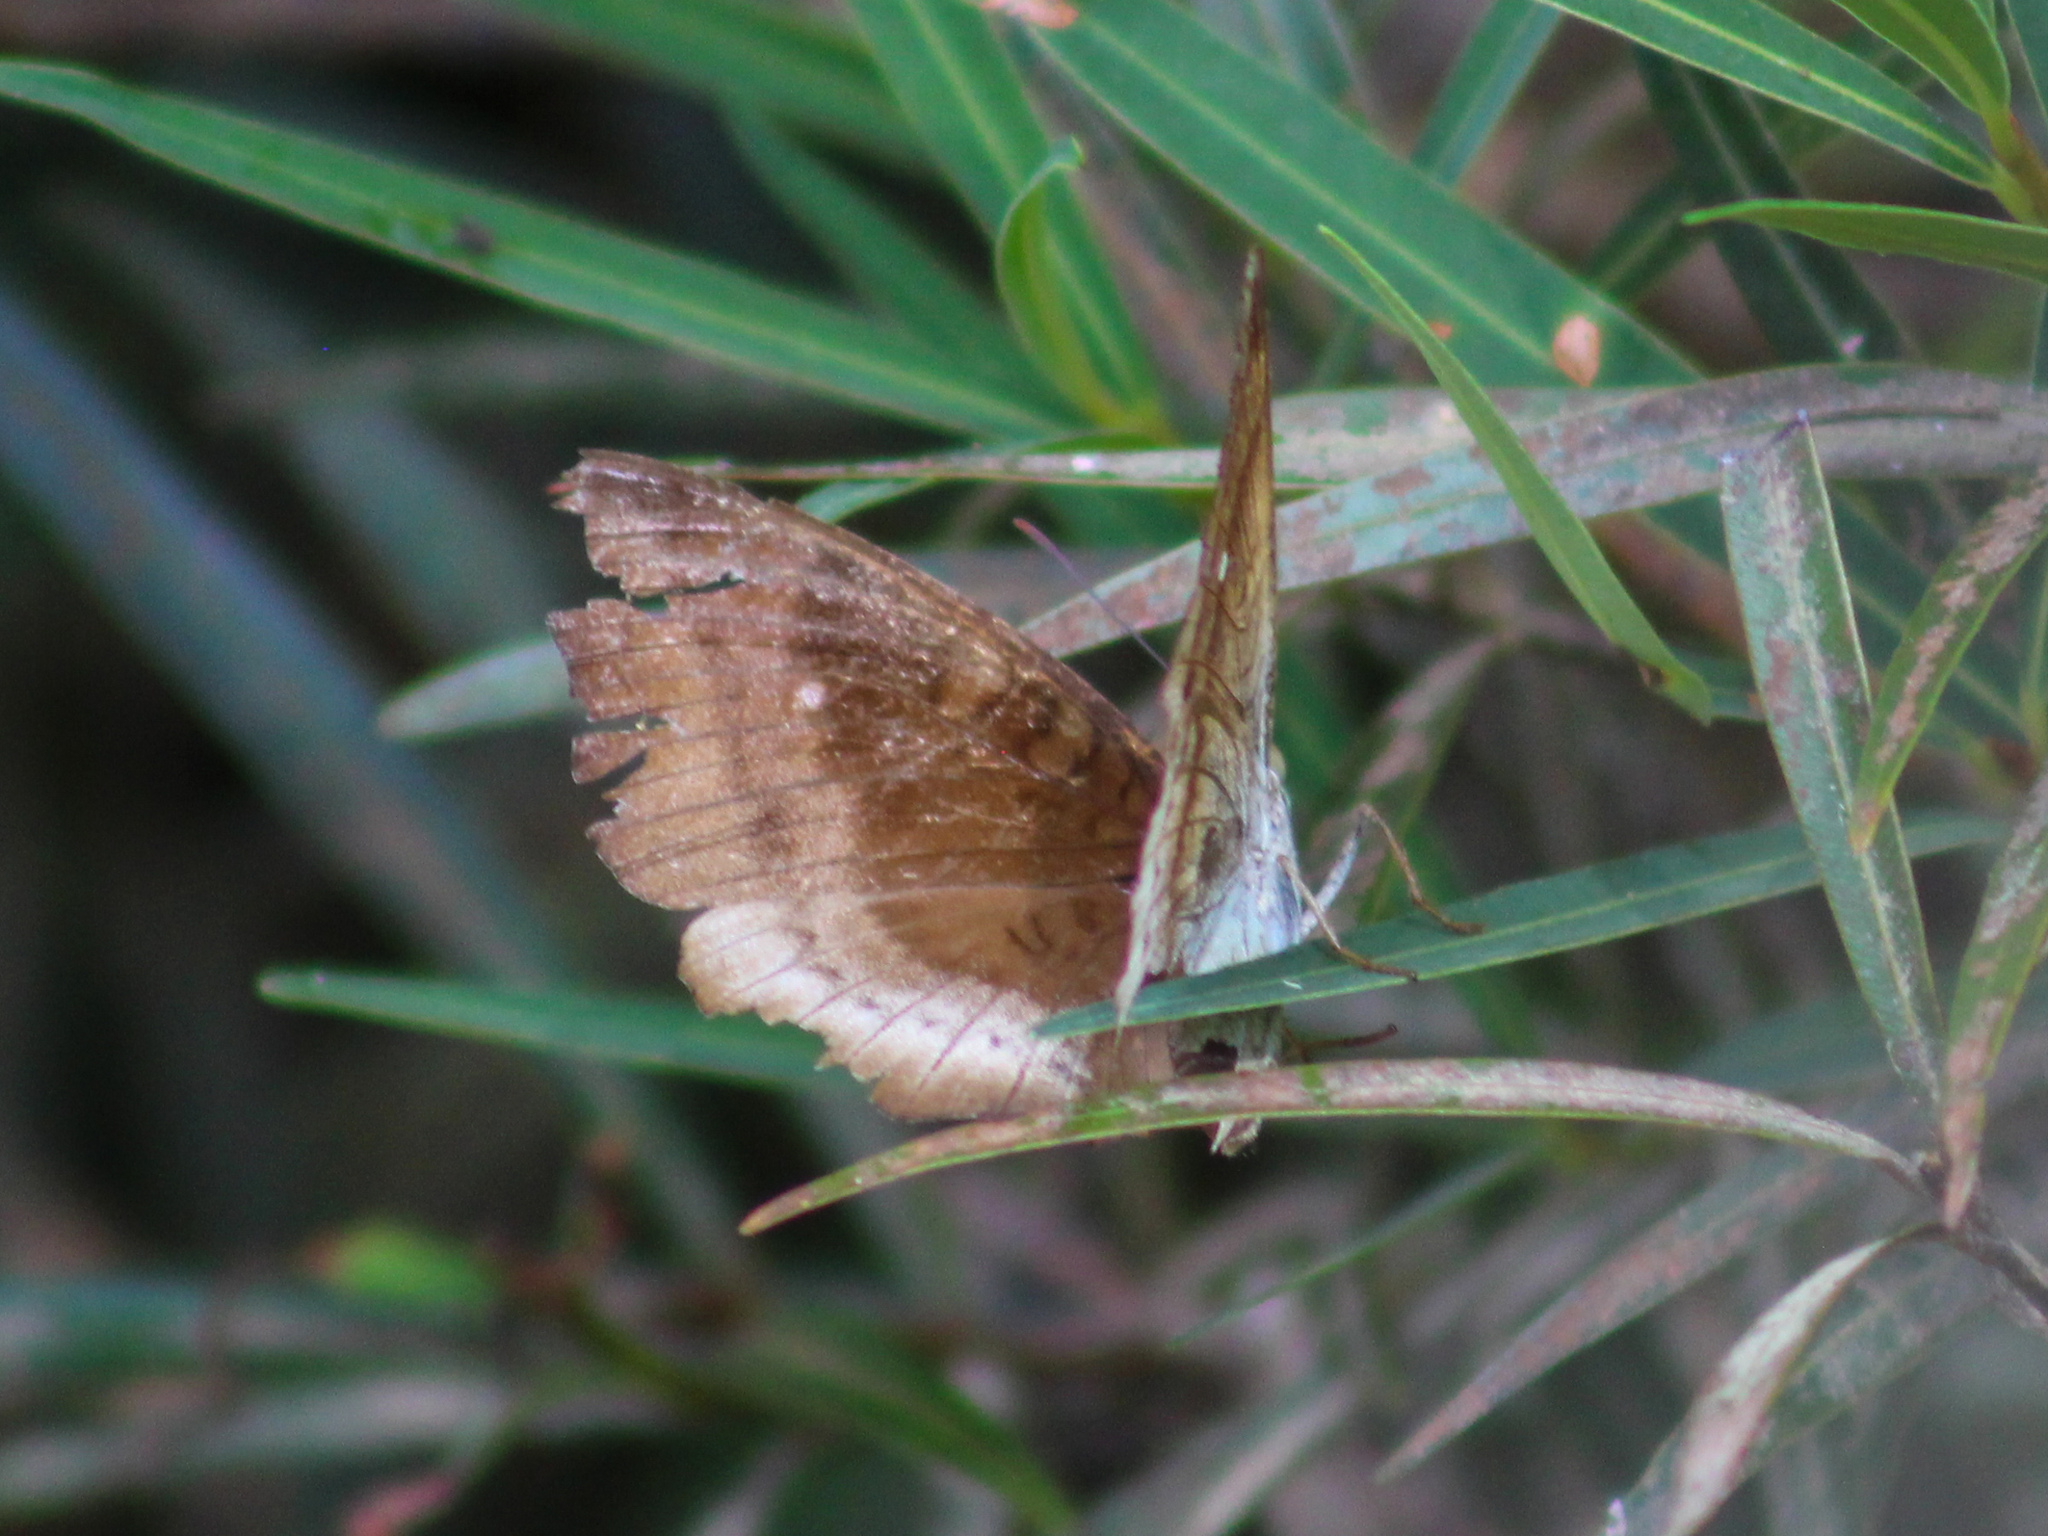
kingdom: Animalia
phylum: Arthropoda
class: Insecta
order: Lepidoptera
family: Nymphalidae
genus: Euthalia
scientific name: Euthalia monina
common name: Powdered baron
